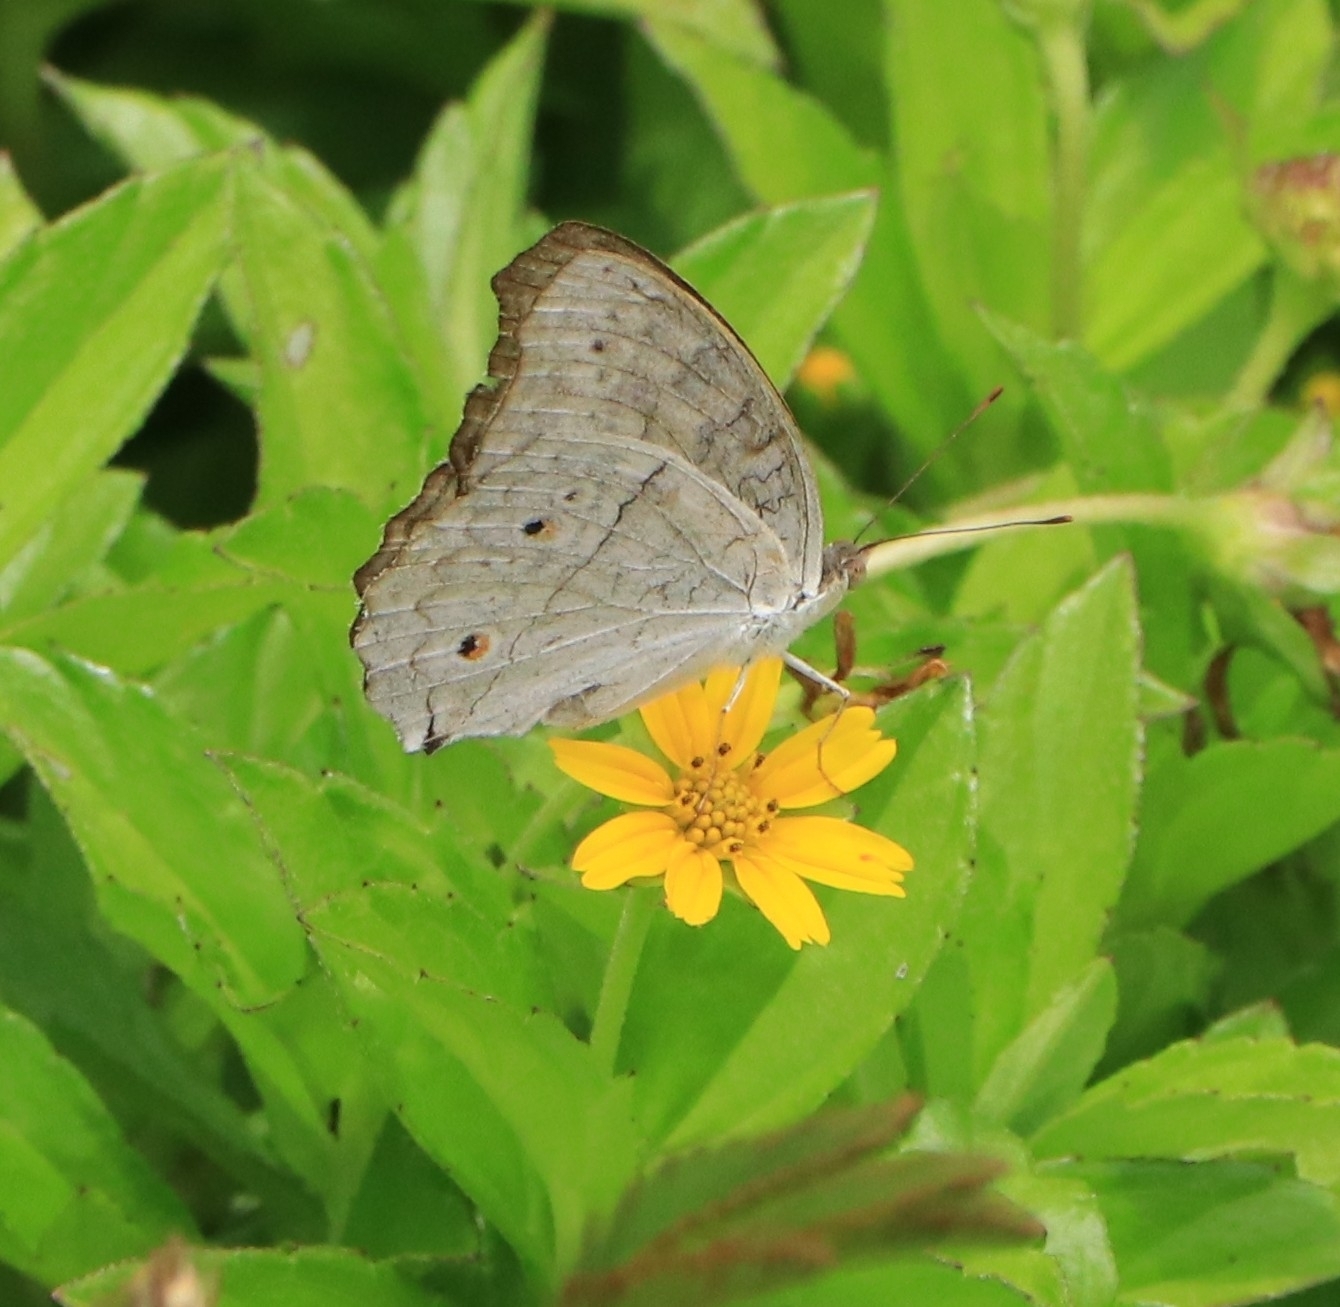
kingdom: Animalia
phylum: Arthropoda
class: Insecta
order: Lepidoptera
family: Nymphalidae
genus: Junonia
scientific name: Junonia atlites
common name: Grey pansy
